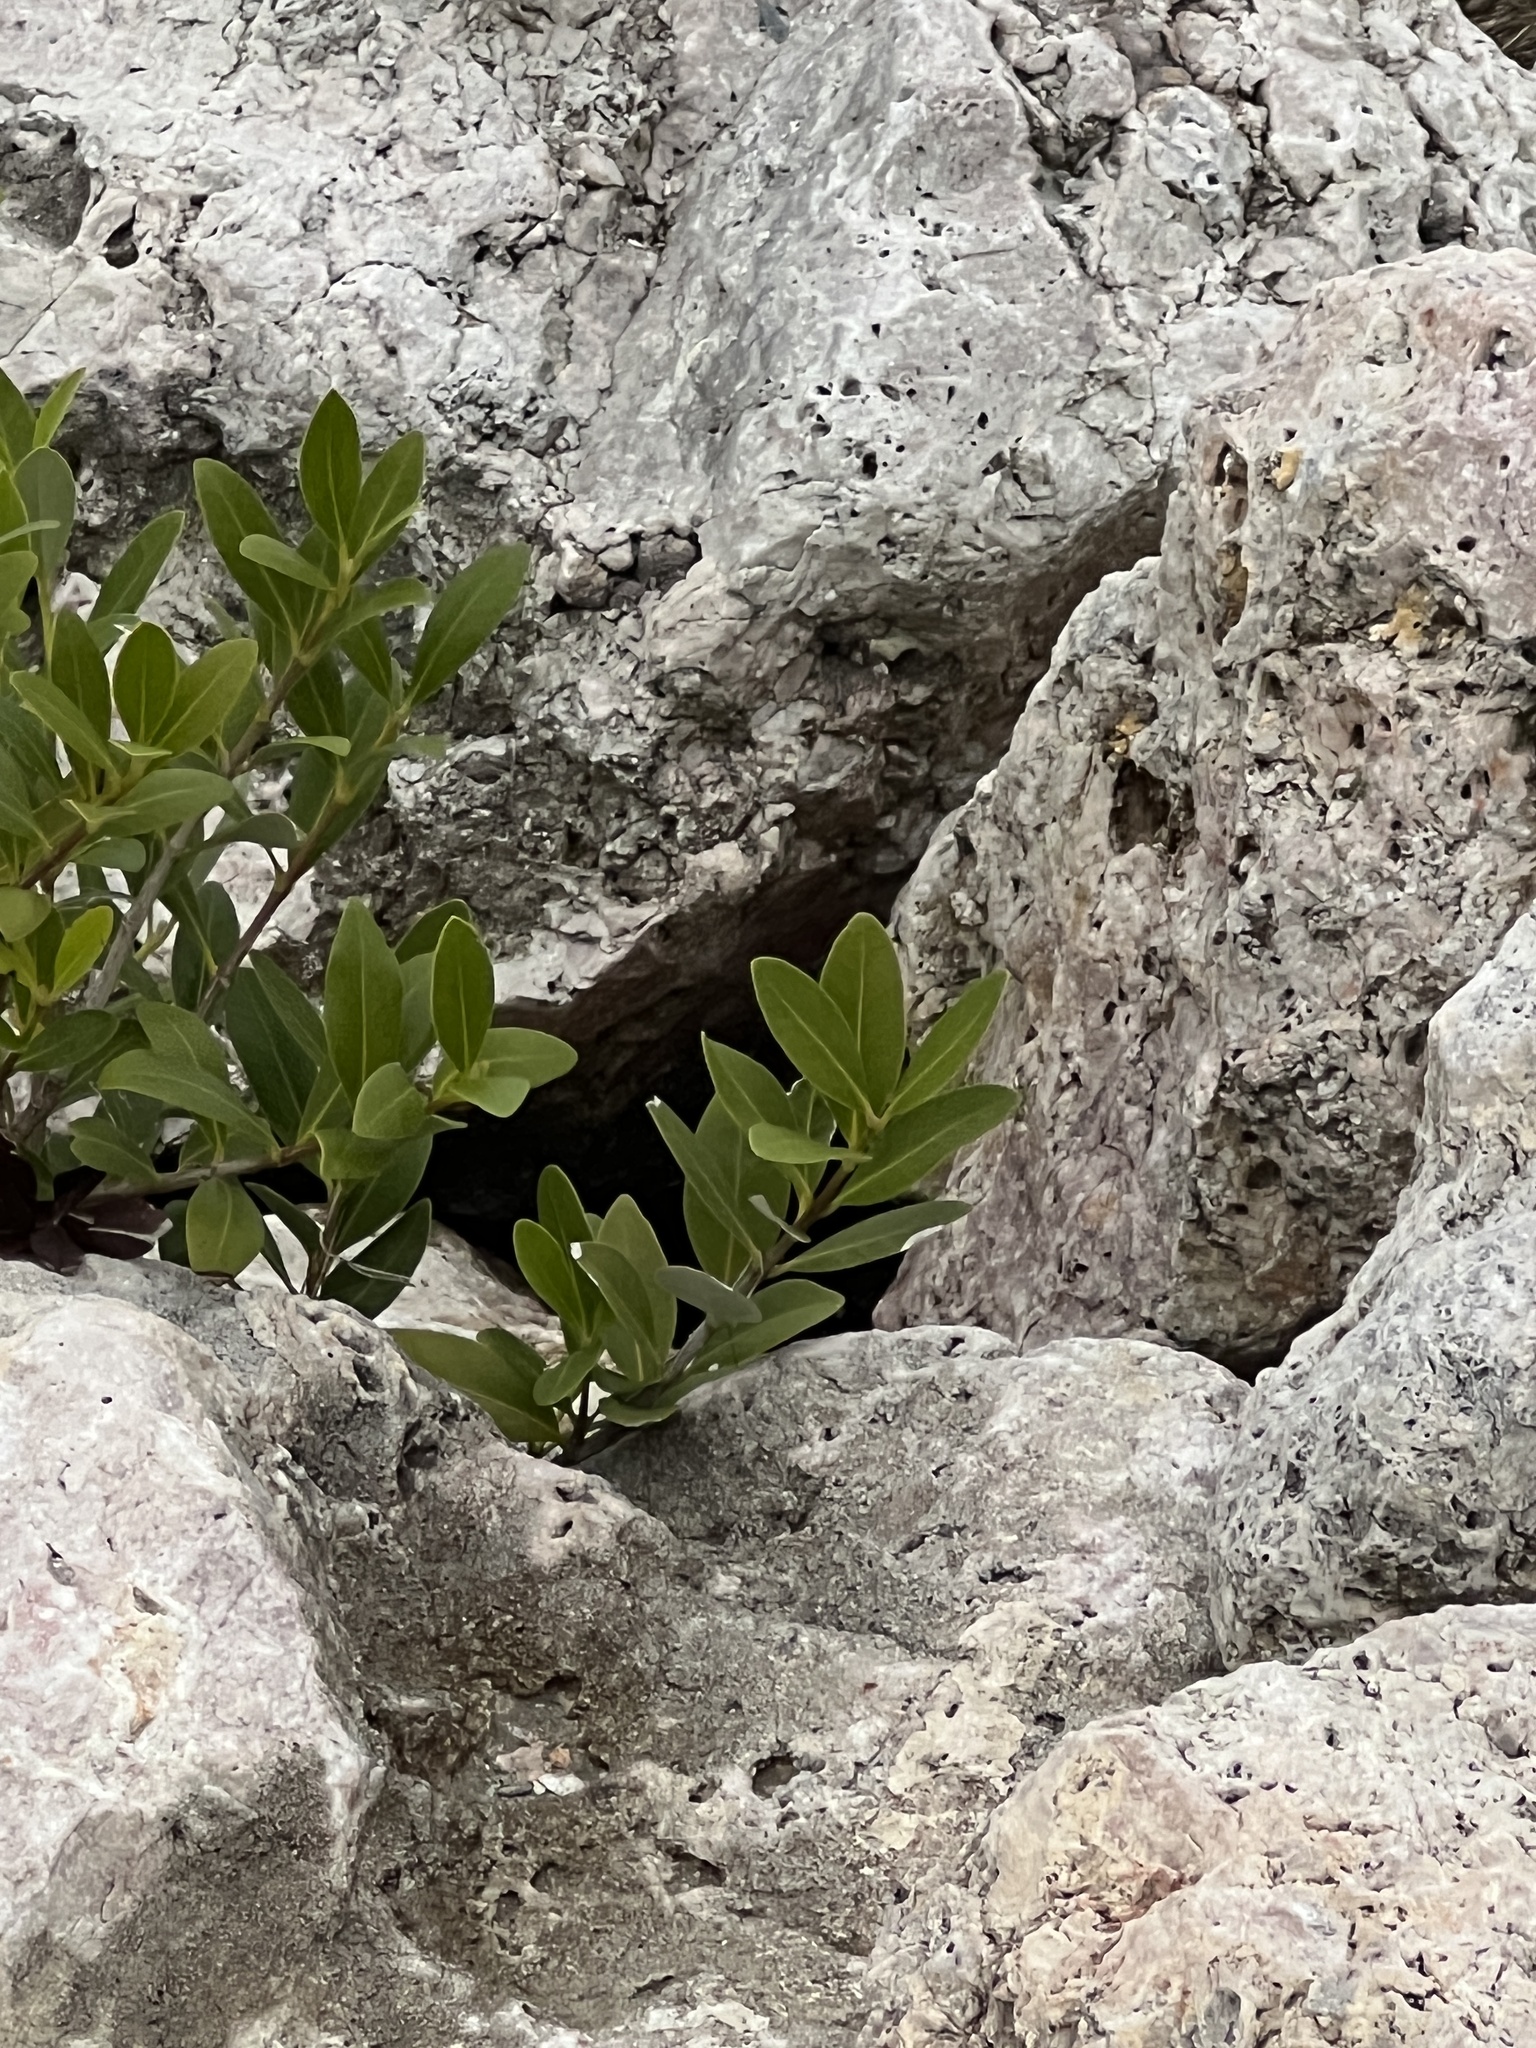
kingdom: Plantae
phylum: Tracheophyta
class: Magnoliopsida
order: Lamiales
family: Acanthaceae
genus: Avicennia
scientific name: Avicennia germinans
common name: Black mangrove
